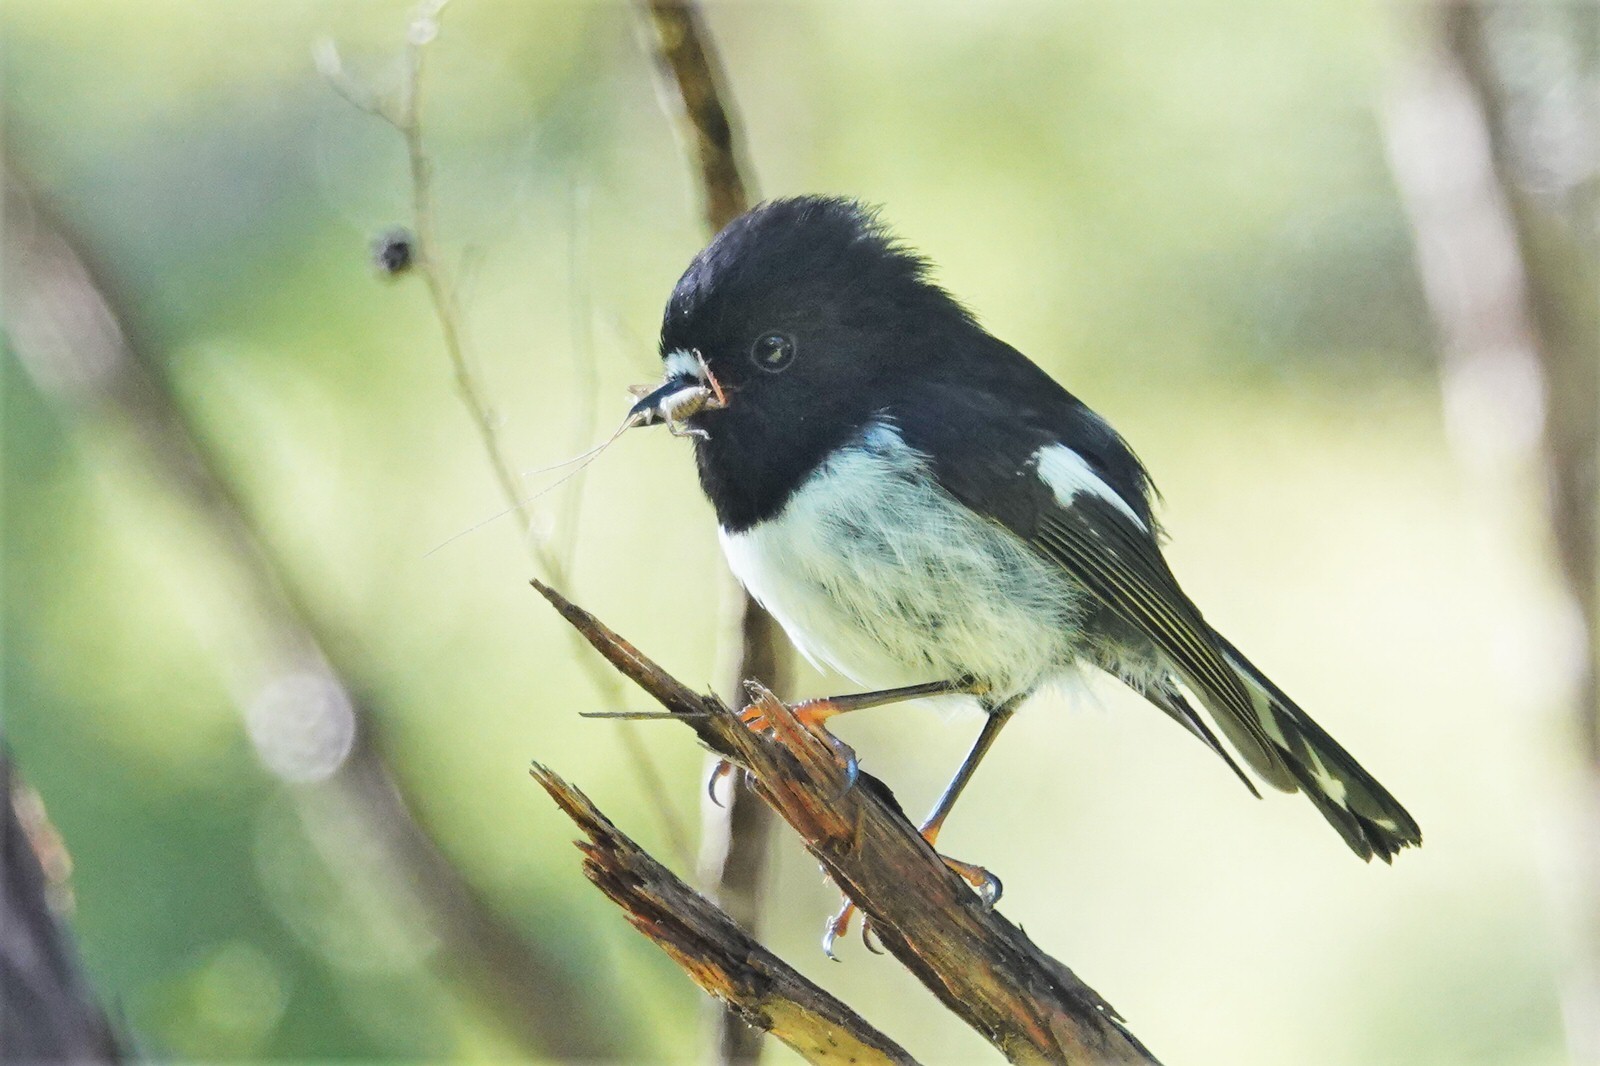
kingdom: Animalia
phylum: Chordata
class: Aves
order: Passeriformes
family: Petroicidae
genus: Petroica
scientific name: Petroica macrocephala
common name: Tomtit
